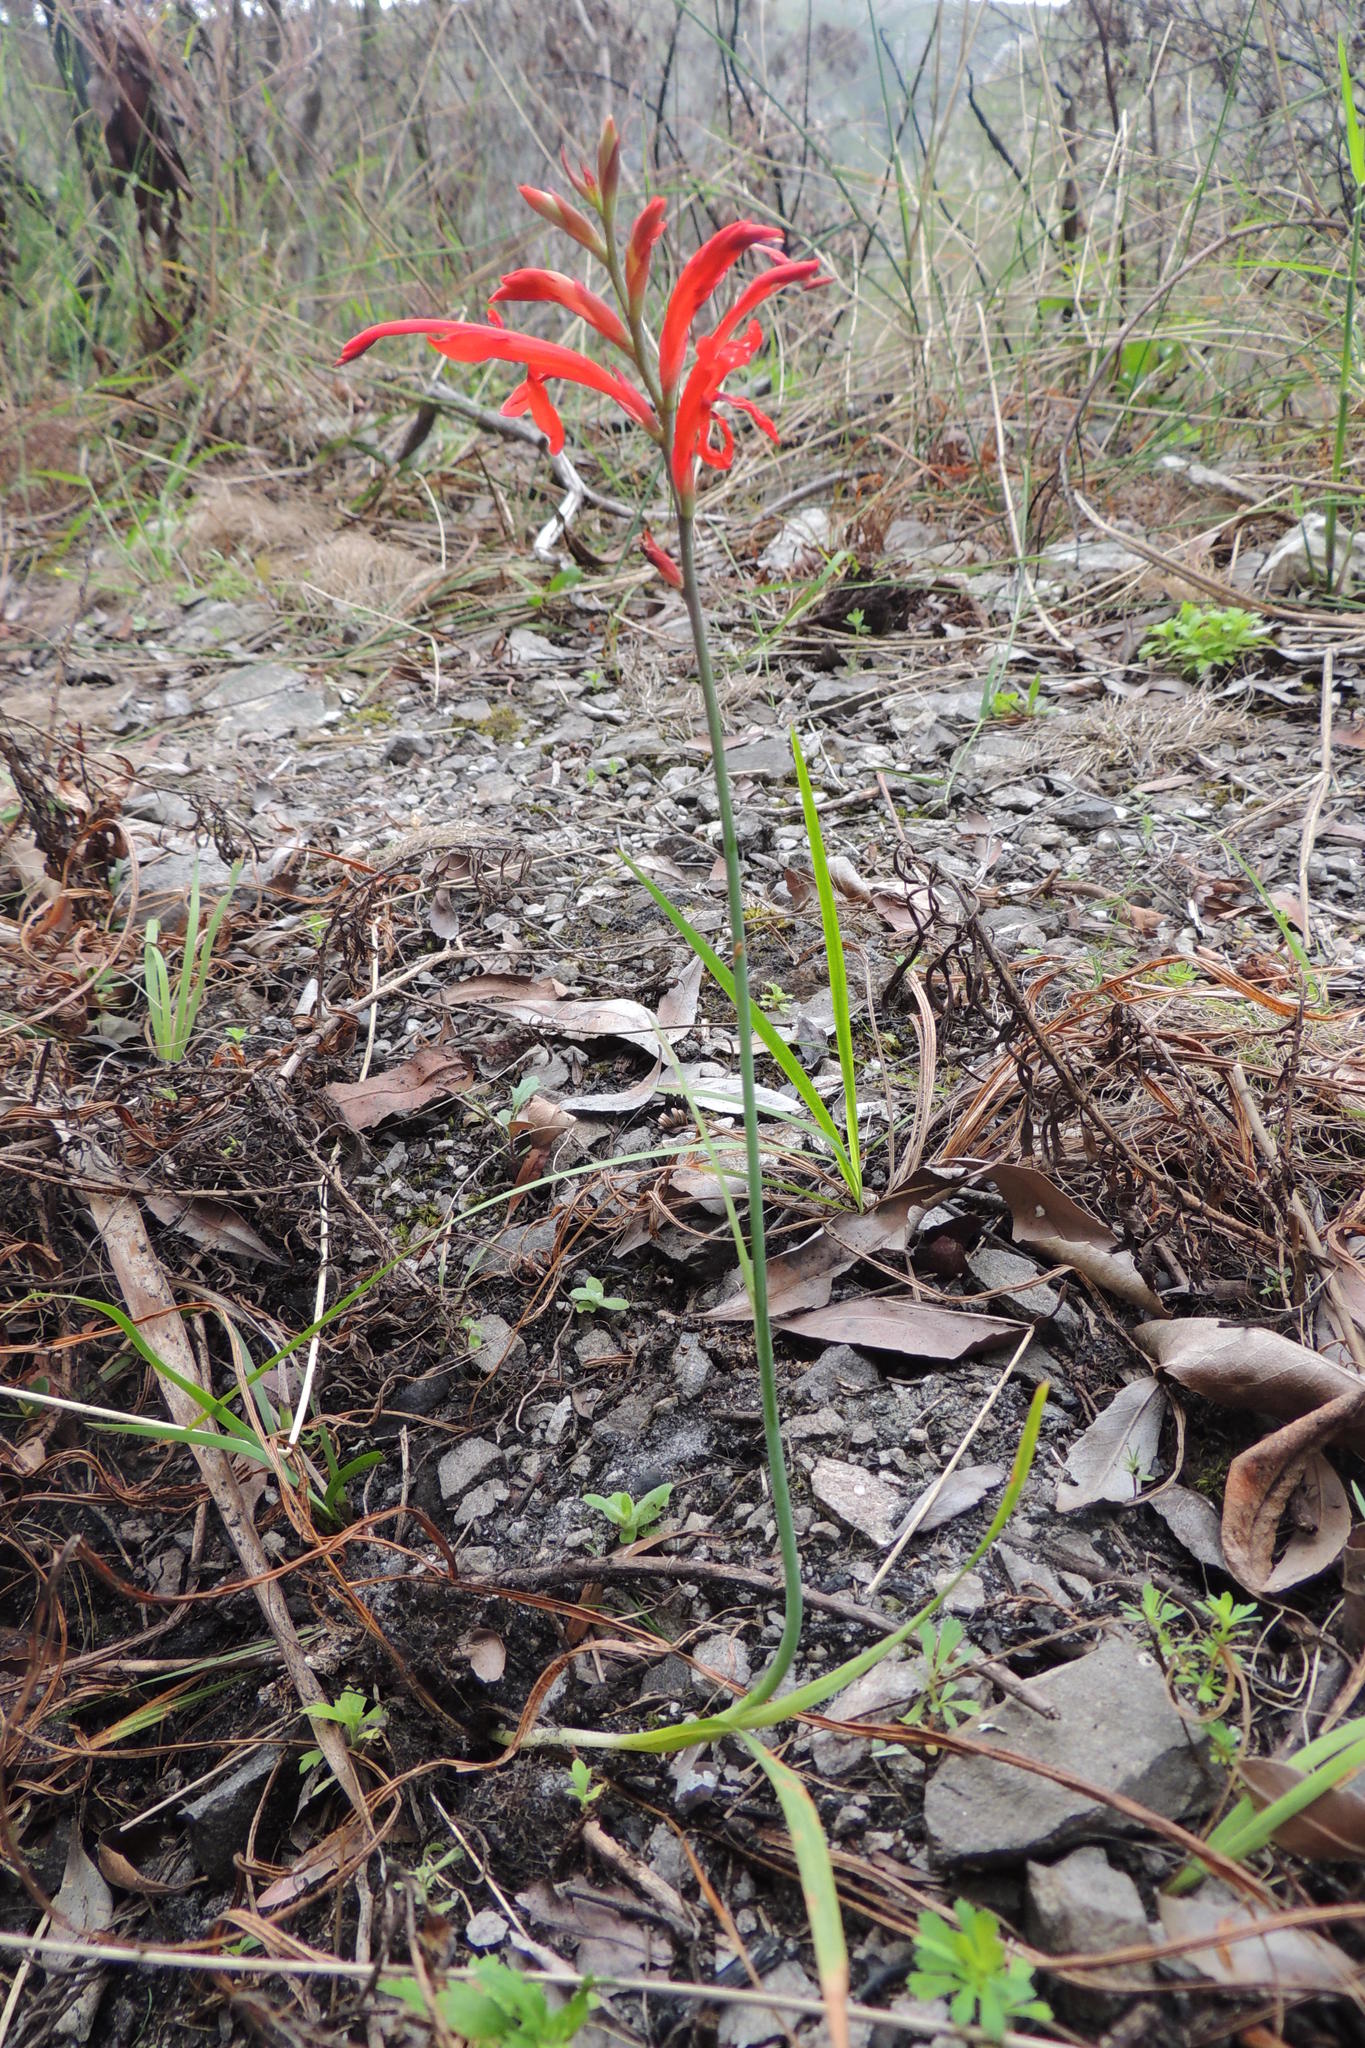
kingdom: Plantae
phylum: Tracheophyta
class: Liliopsida
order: Asparagales
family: Iridaceae
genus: Tritoniopsis
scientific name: Tritoniopsis caffra
